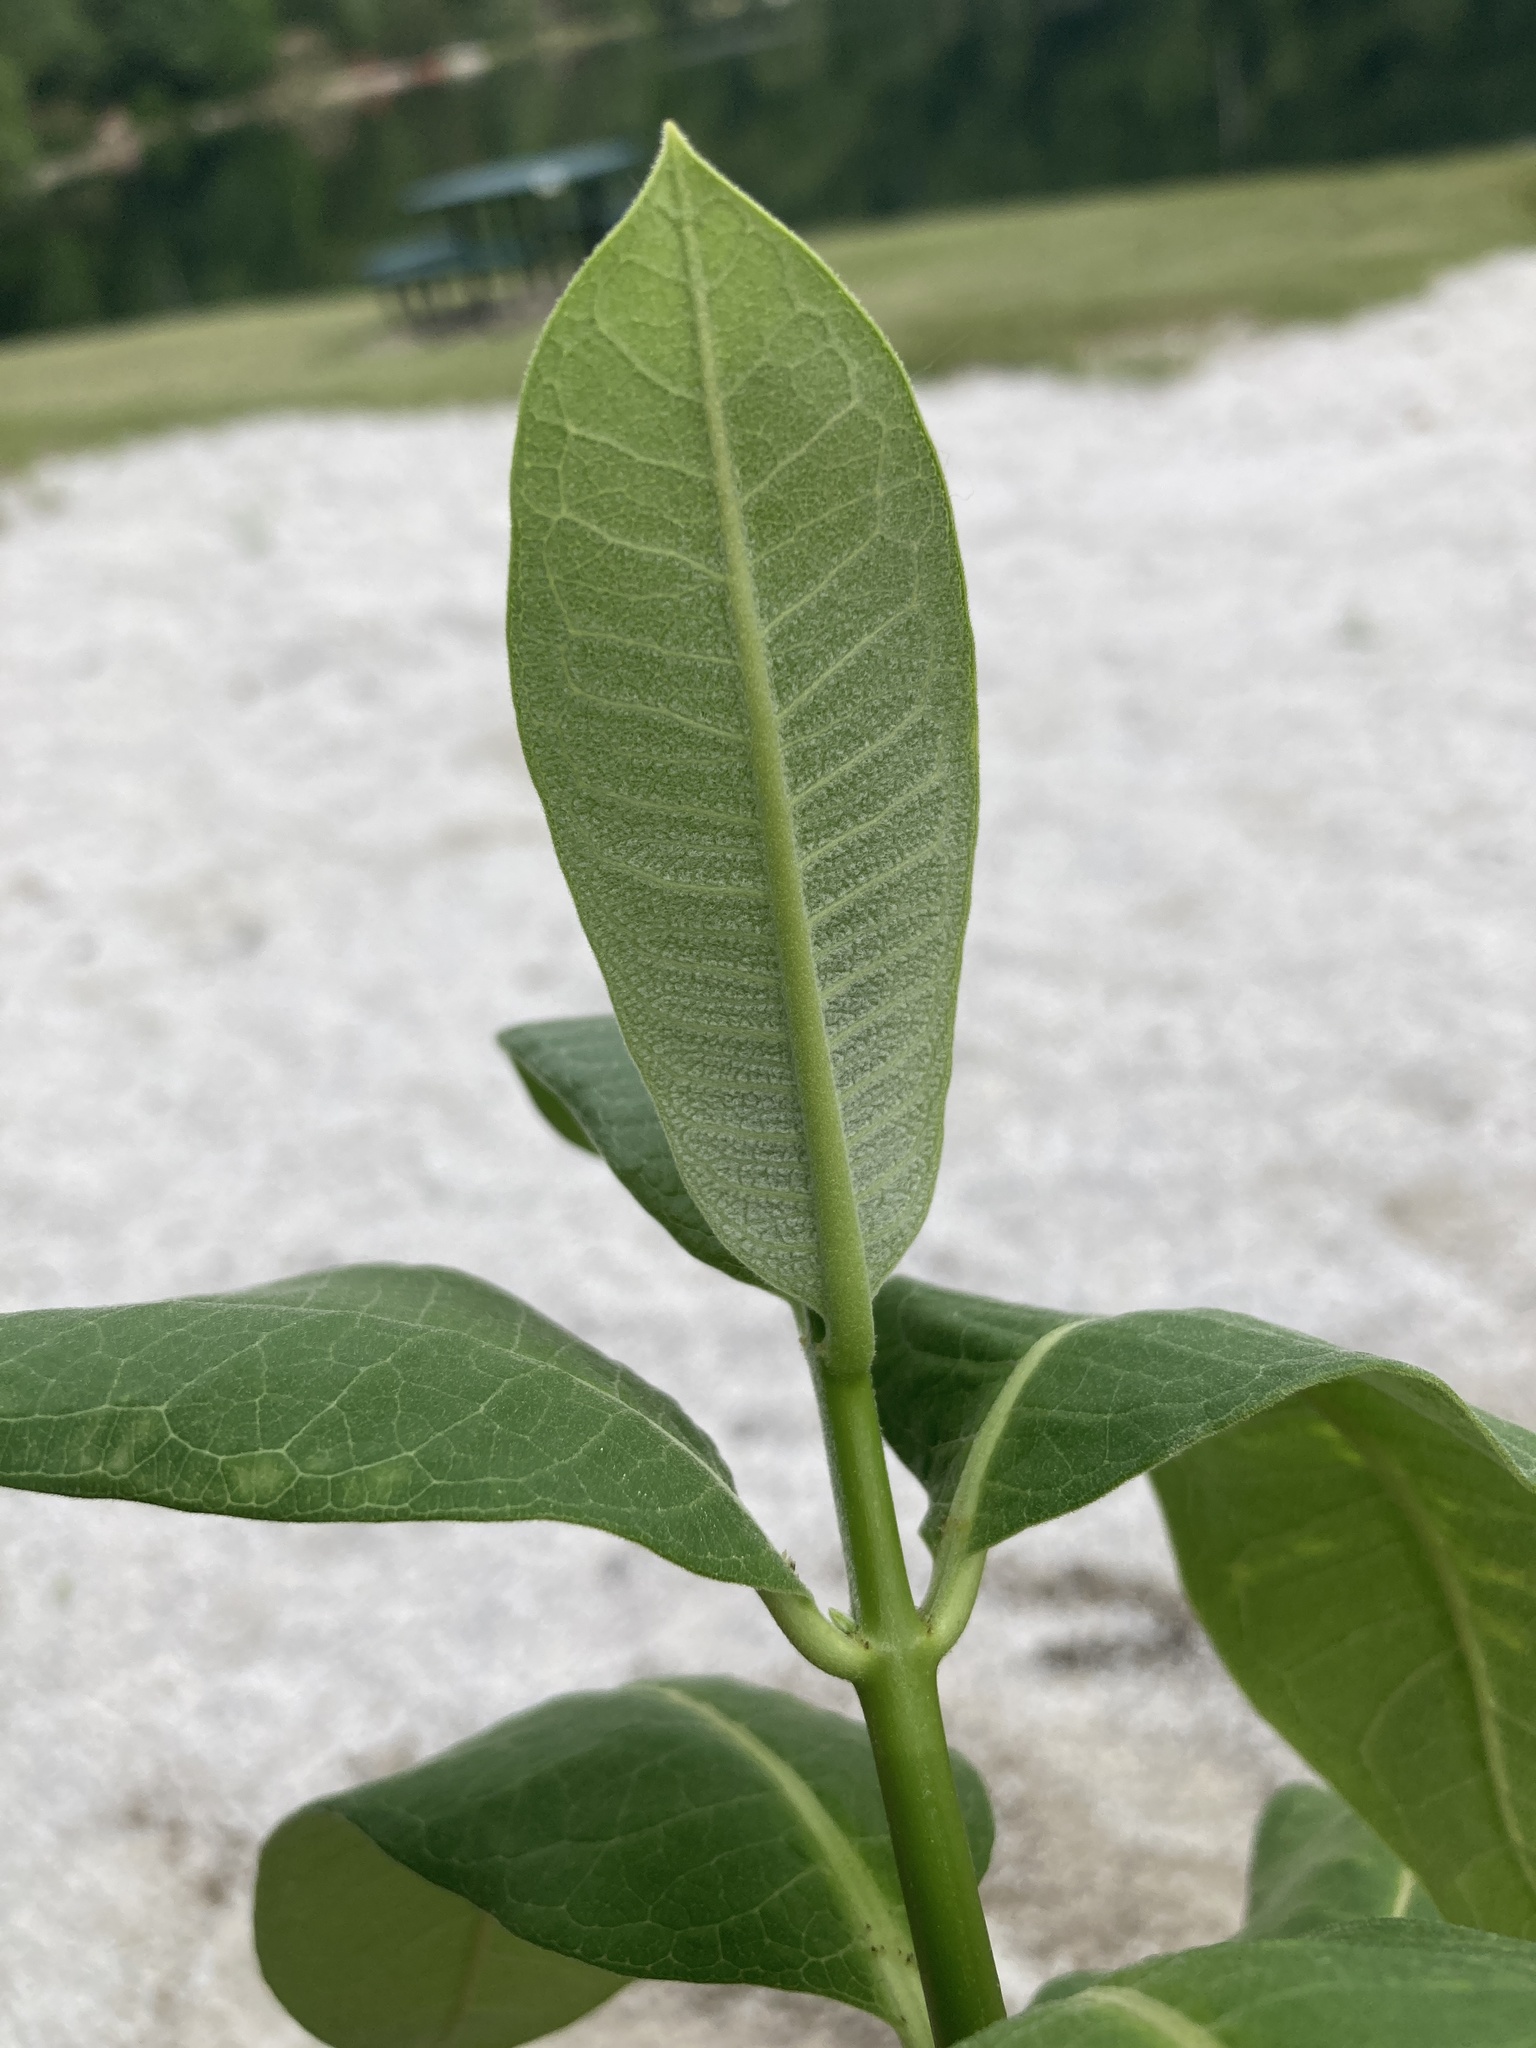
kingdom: Plantae
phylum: Tracheophyta
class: Magnoliopsida
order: Gentianales
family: Apocynaceae
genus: Asclepias
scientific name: Asclepias syriaca
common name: Common milkweed
